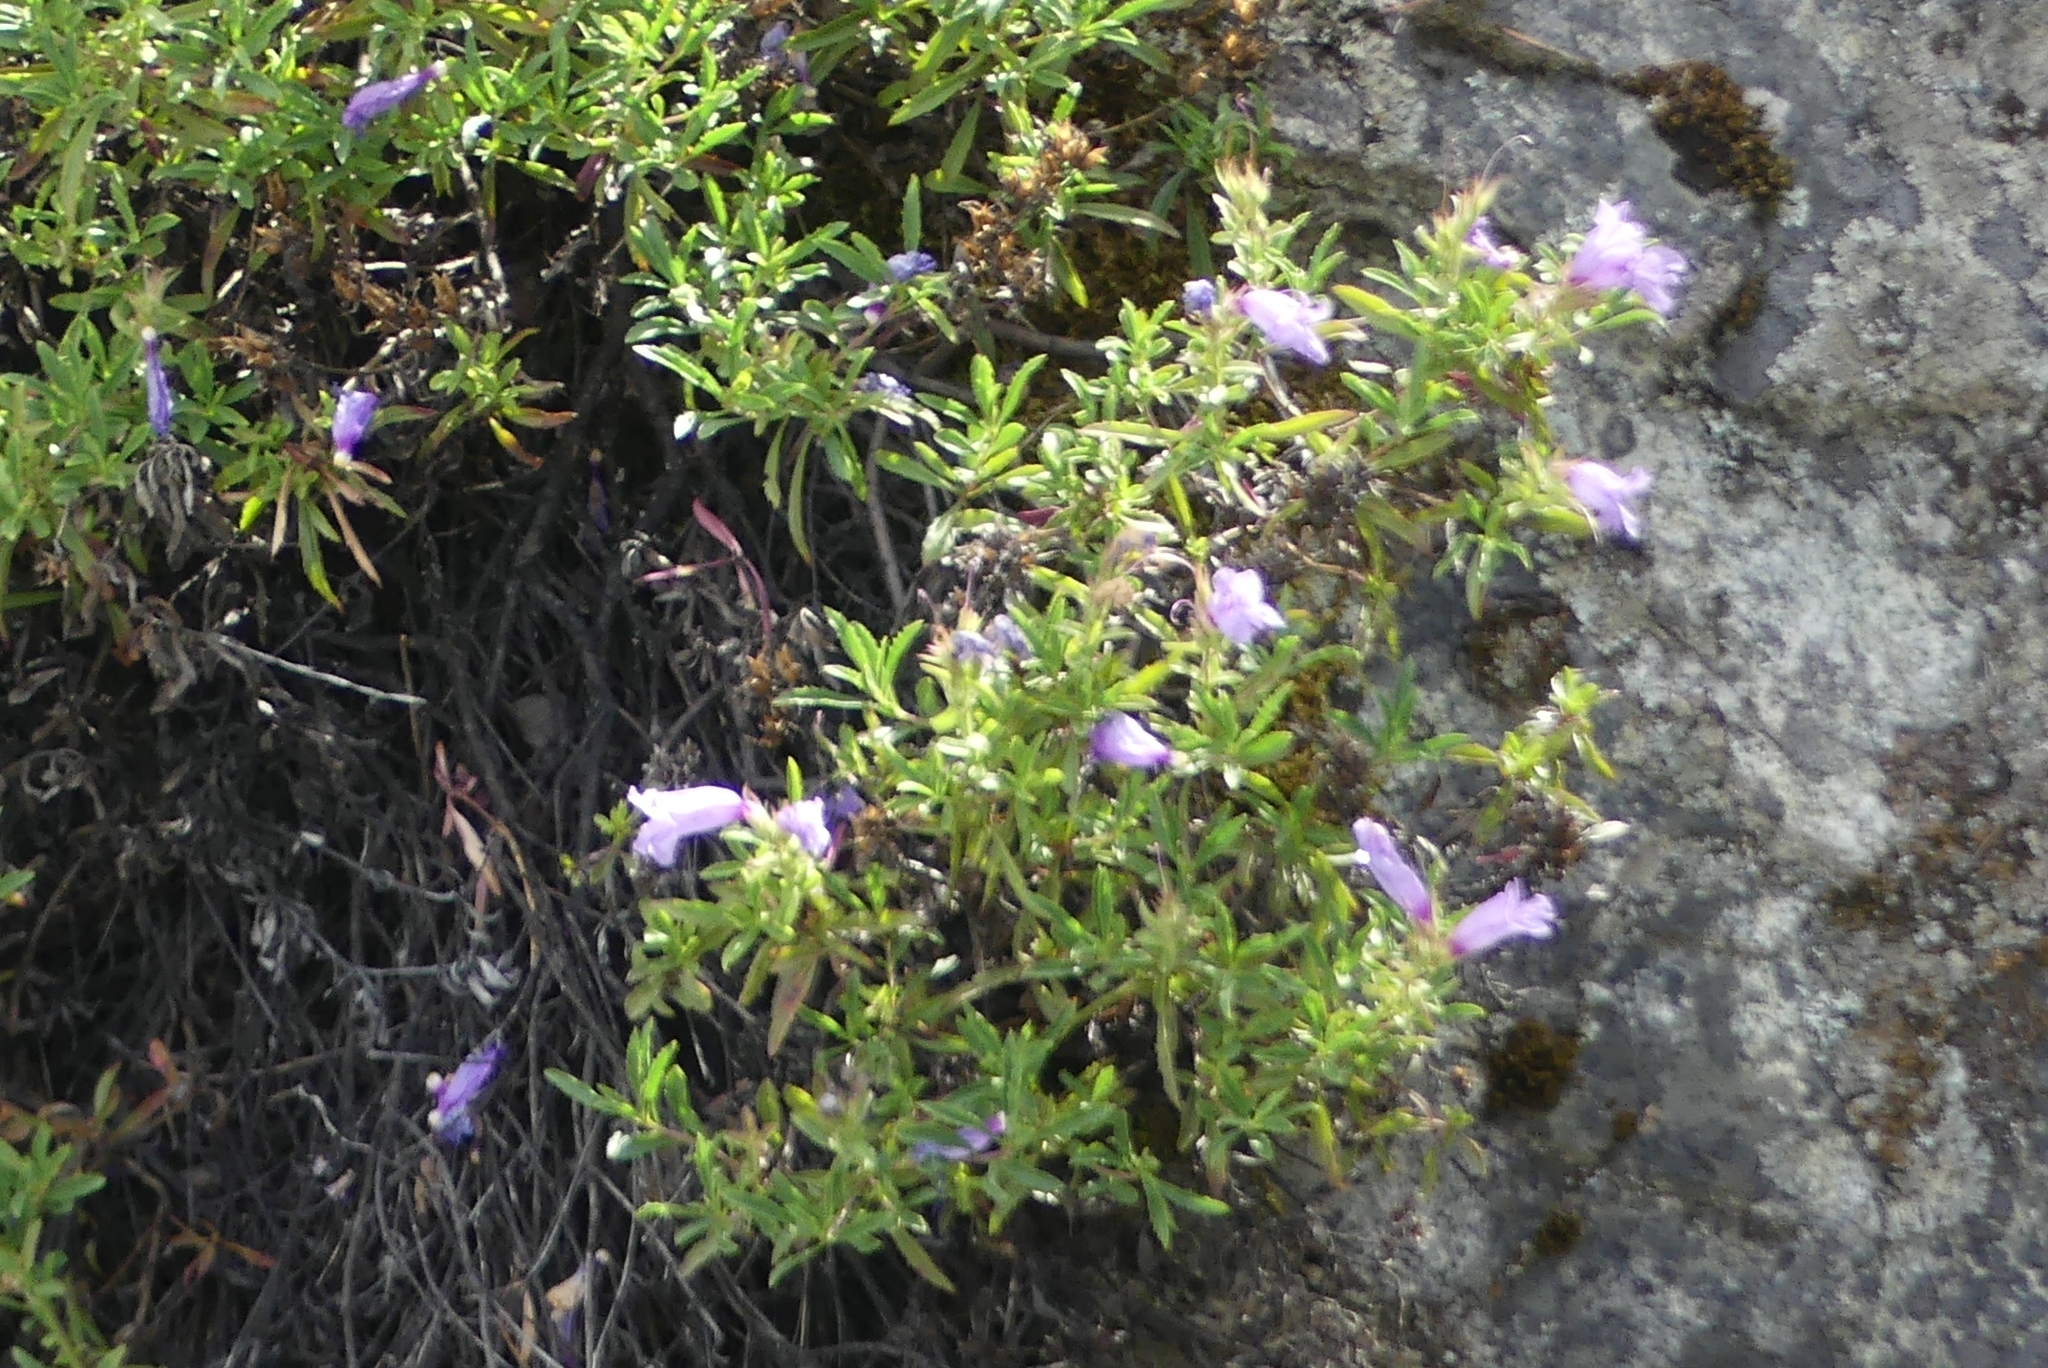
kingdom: Plantae
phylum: Tracheophyta
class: Magnoliopsida
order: Lamiales
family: Plantaginaceae
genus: Penstemon
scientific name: Penstemon fruticosus
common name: Bush penstemon
